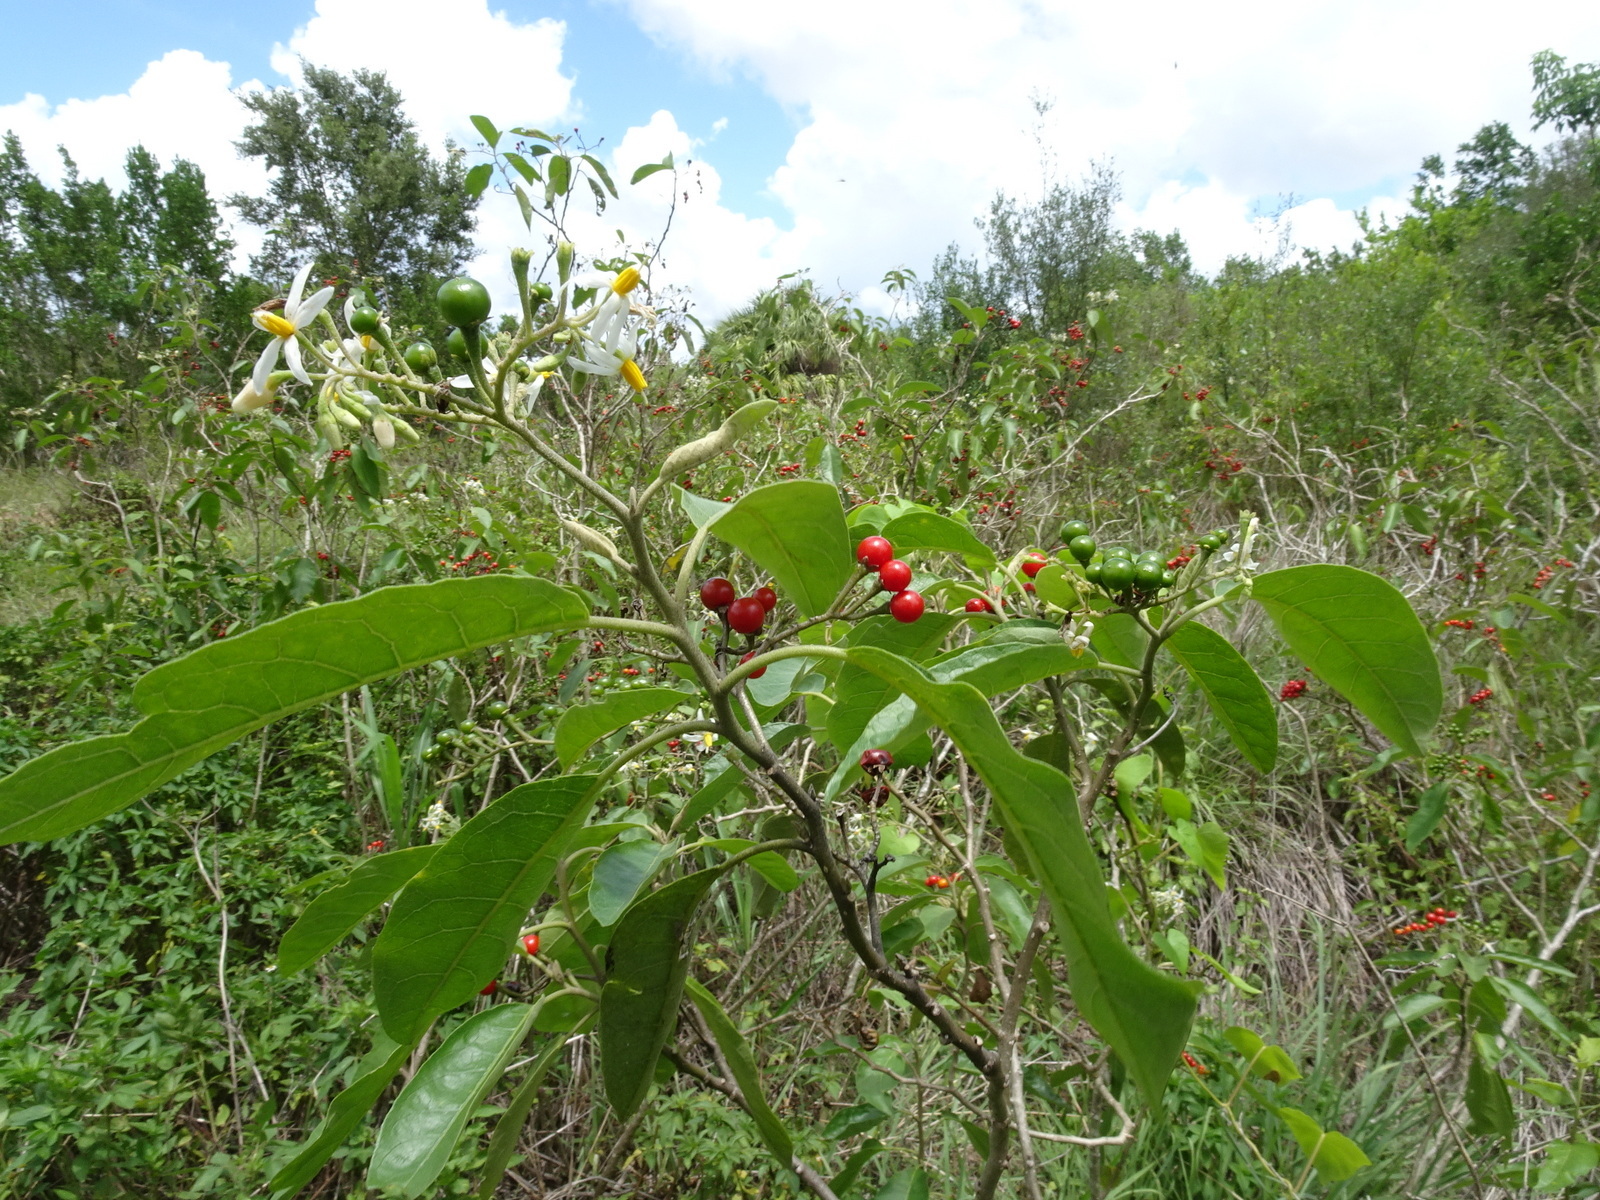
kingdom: Plantae
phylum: Tracheophyta
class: Magnoliopsida
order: Solanales
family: Solanaceae
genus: Solanum
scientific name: Solanum donianum
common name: Mullein nightshade
